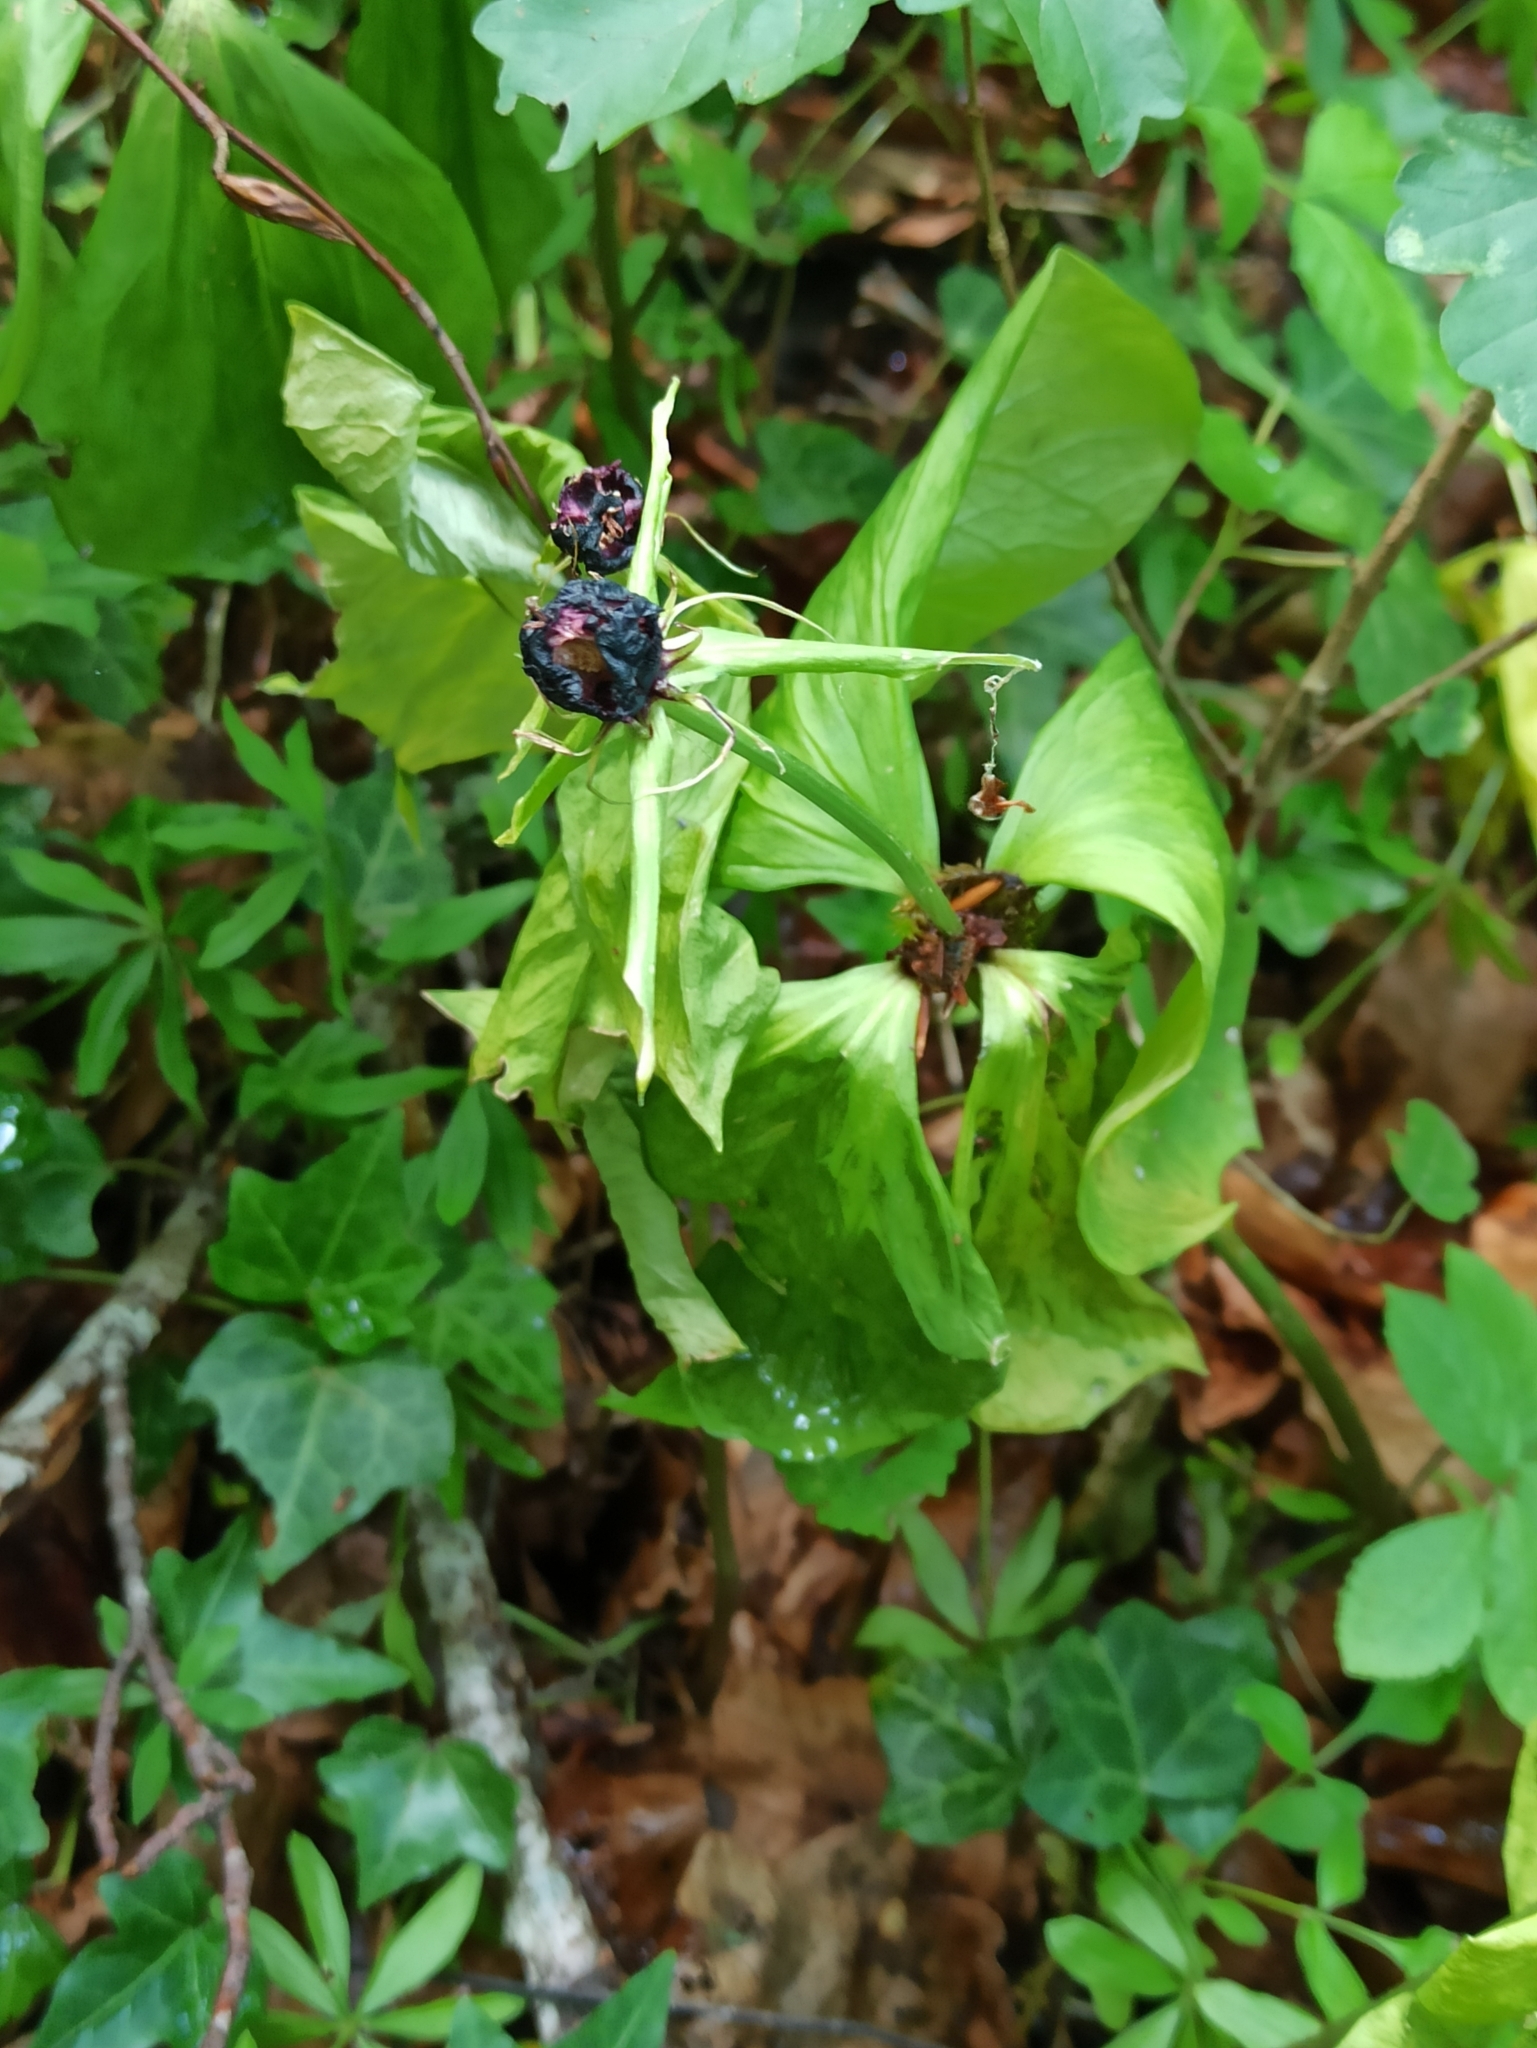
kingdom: Plantae
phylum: Tracheophyta
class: Liliopsida
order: Liliales
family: Melanthiaceae
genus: Paris
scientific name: Paris quadrifolia
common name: Herb-paris
